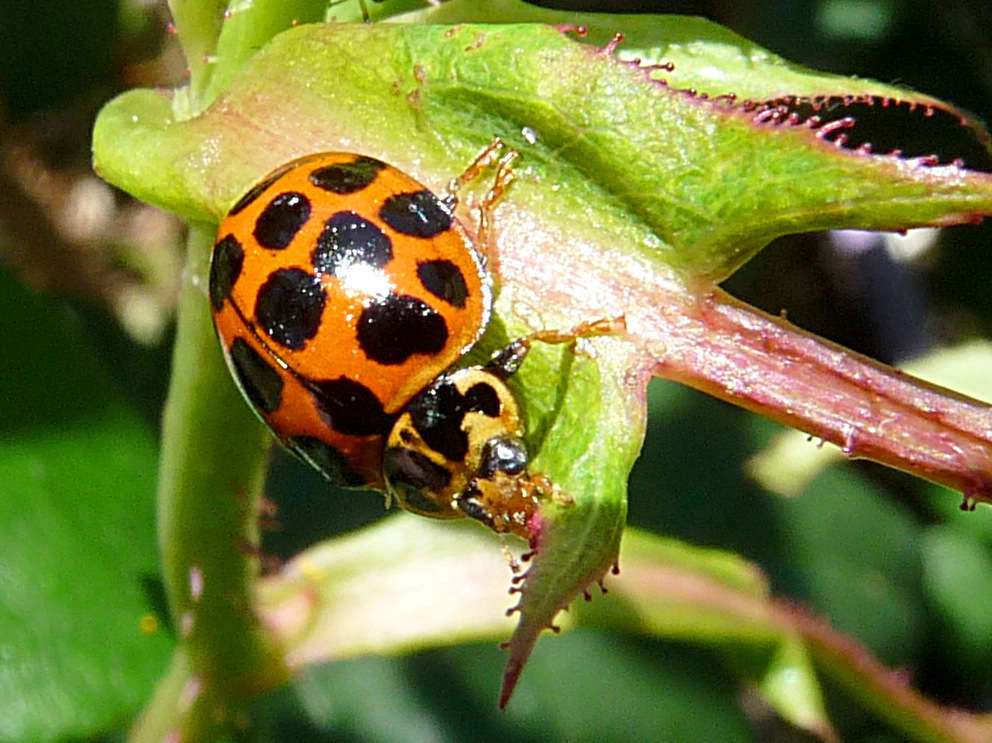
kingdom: Animalia
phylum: Arthropoda
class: Insecta
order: Coleoptera
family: Coccinellidae
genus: Harmonia
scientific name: Harmonia conformis
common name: Common spotted ladybird beetle
